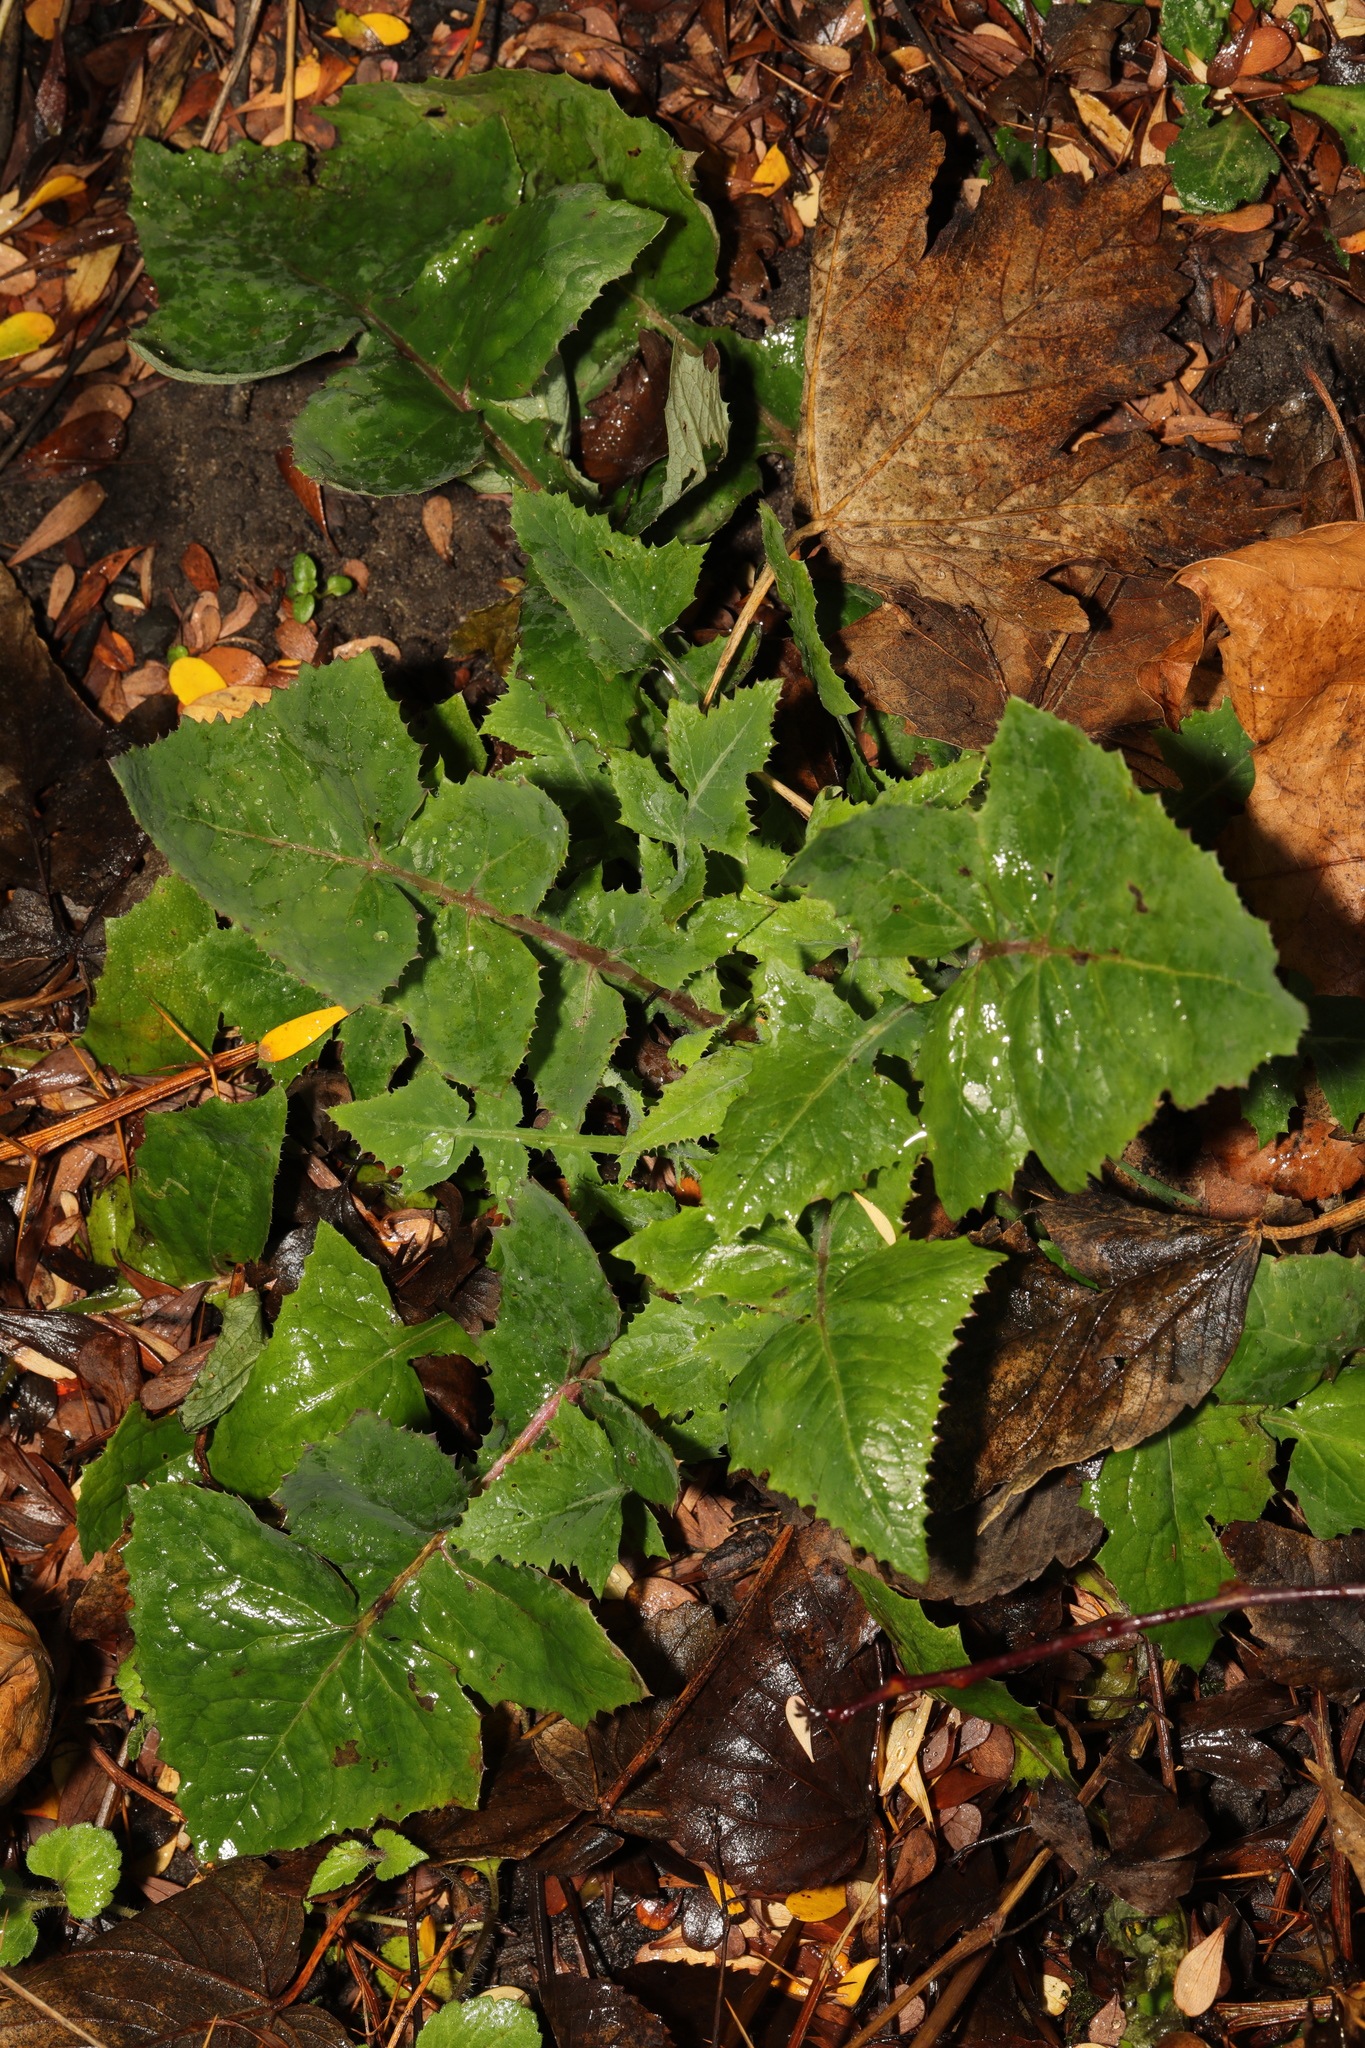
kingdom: Plantae
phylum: Tracheophyta
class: Magnoliopsida
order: Asterales
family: Asteraceae
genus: Sonchus
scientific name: Sonchus oleraceus
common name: Common sowthistle
